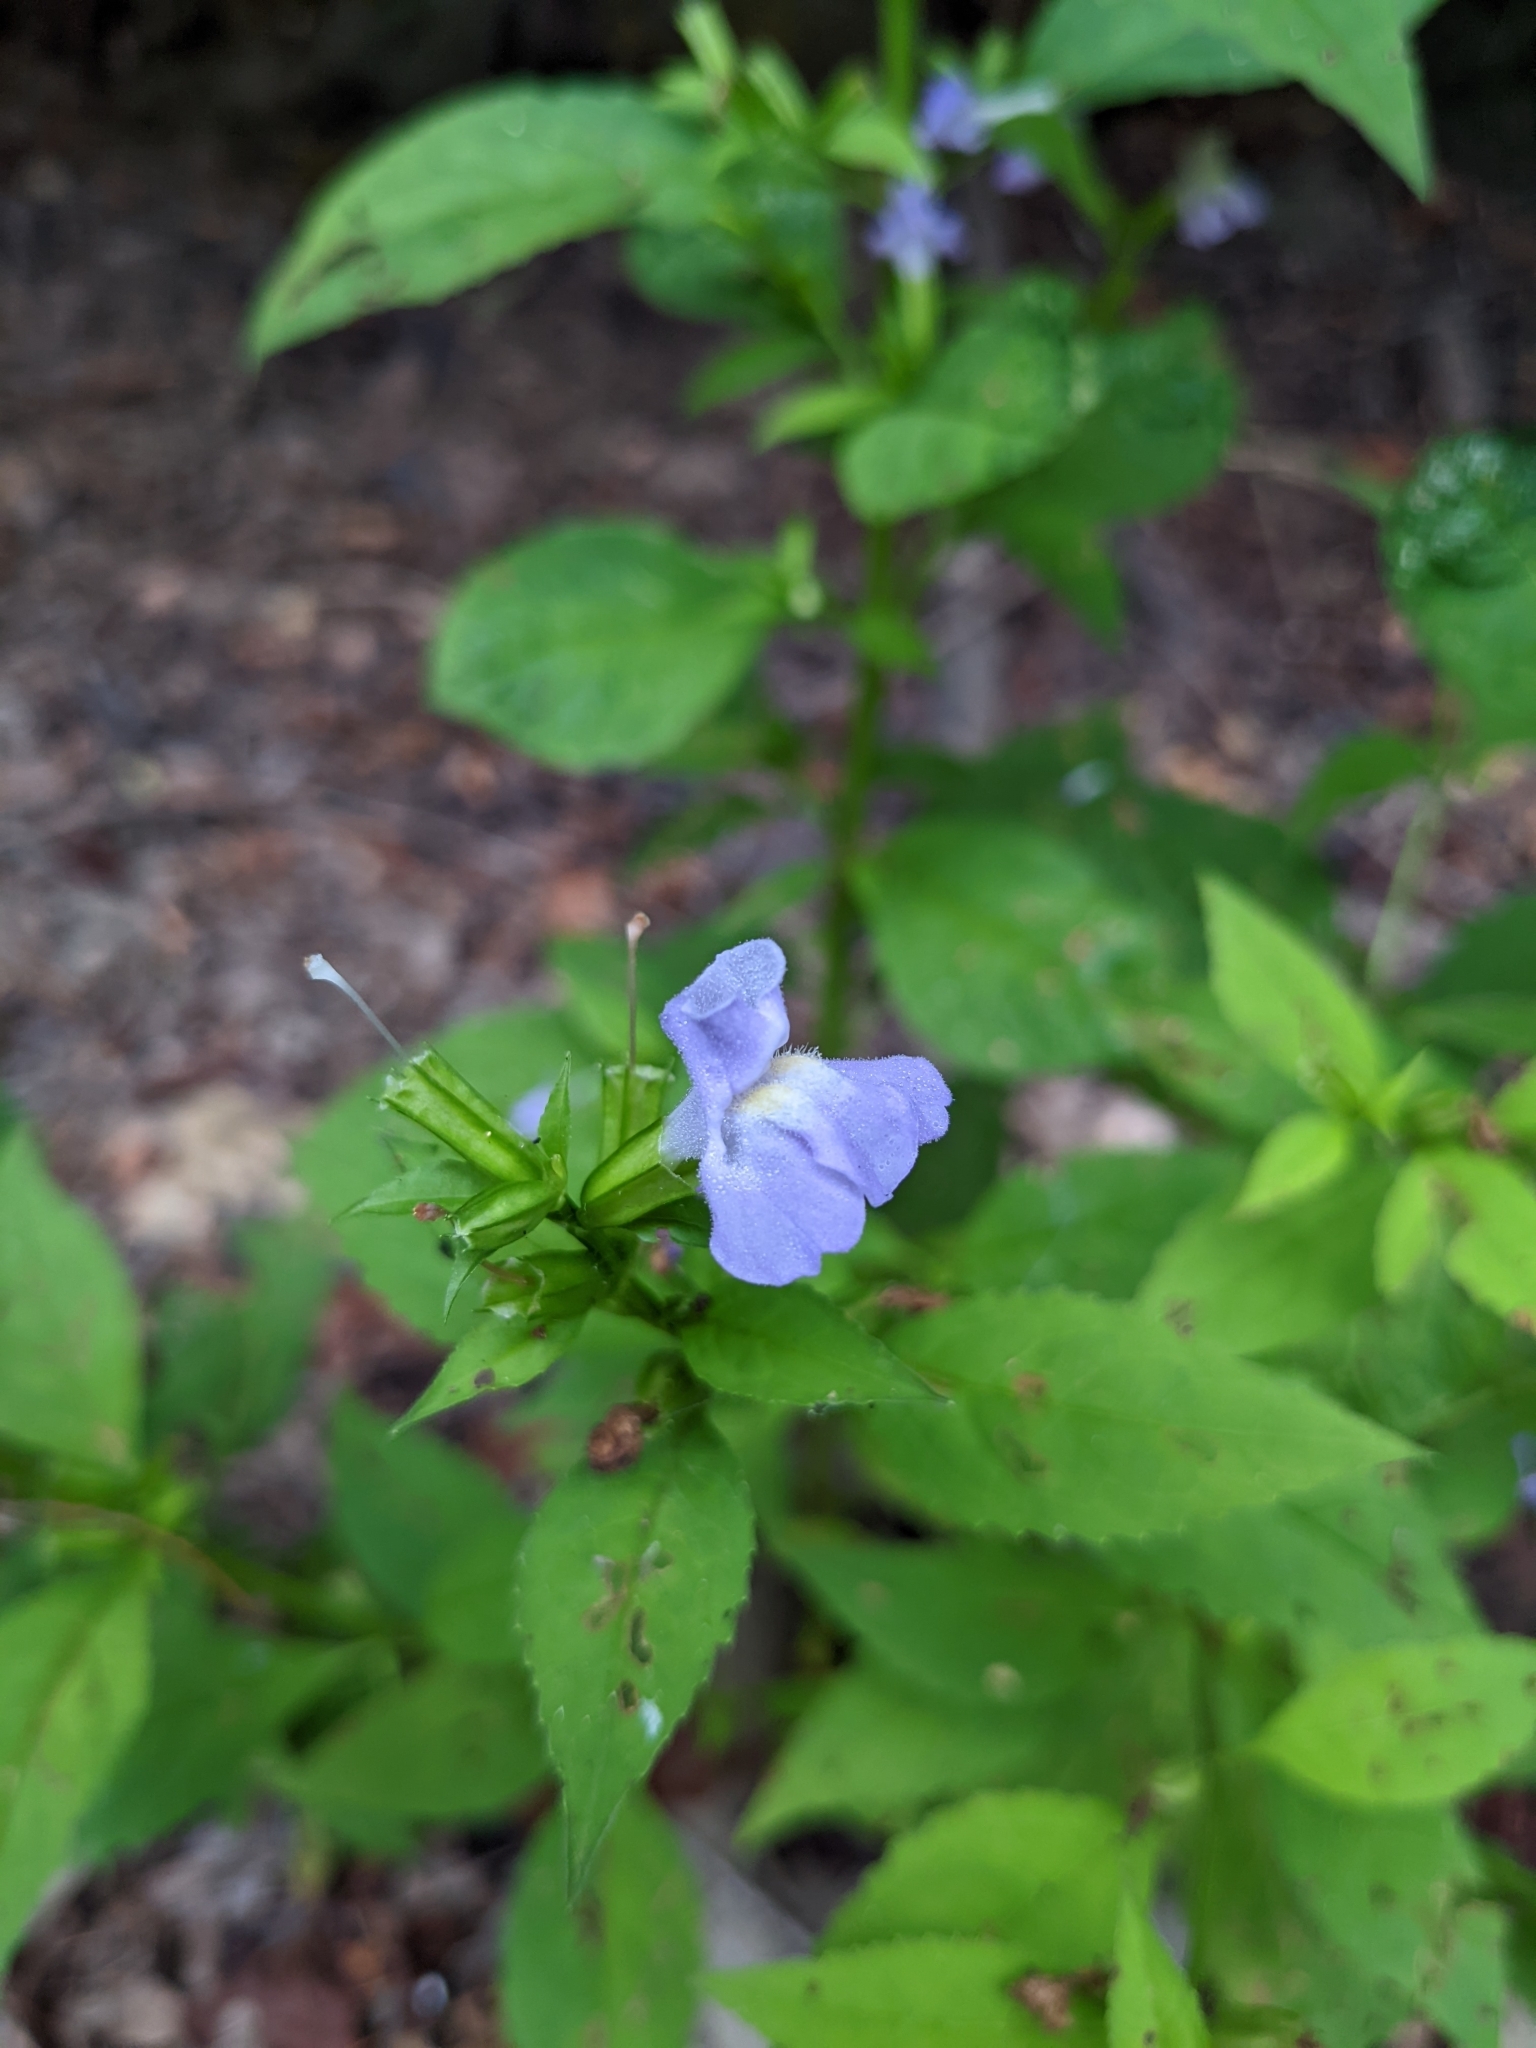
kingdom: Plantae
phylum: Tracheophyta
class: Magnoliopsida
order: Lamiales
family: Phrymaceae
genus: Mimulus
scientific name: Mimulus alatus
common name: Sharp-wing monkey-flower
